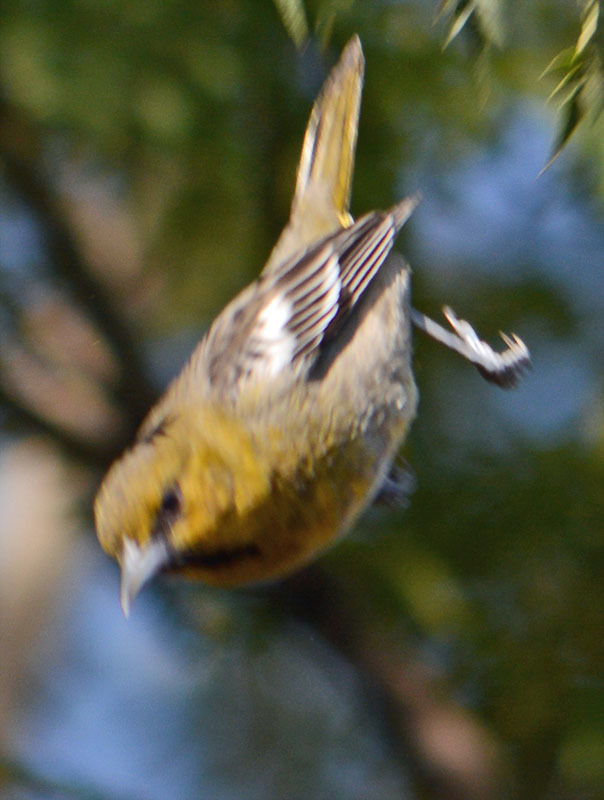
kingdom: Animalia
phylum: Chordata
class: Aves
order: Passeriformes
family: Icteridae
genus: Icterus
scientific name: Icterus bullockii
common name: Bullock's oriole
